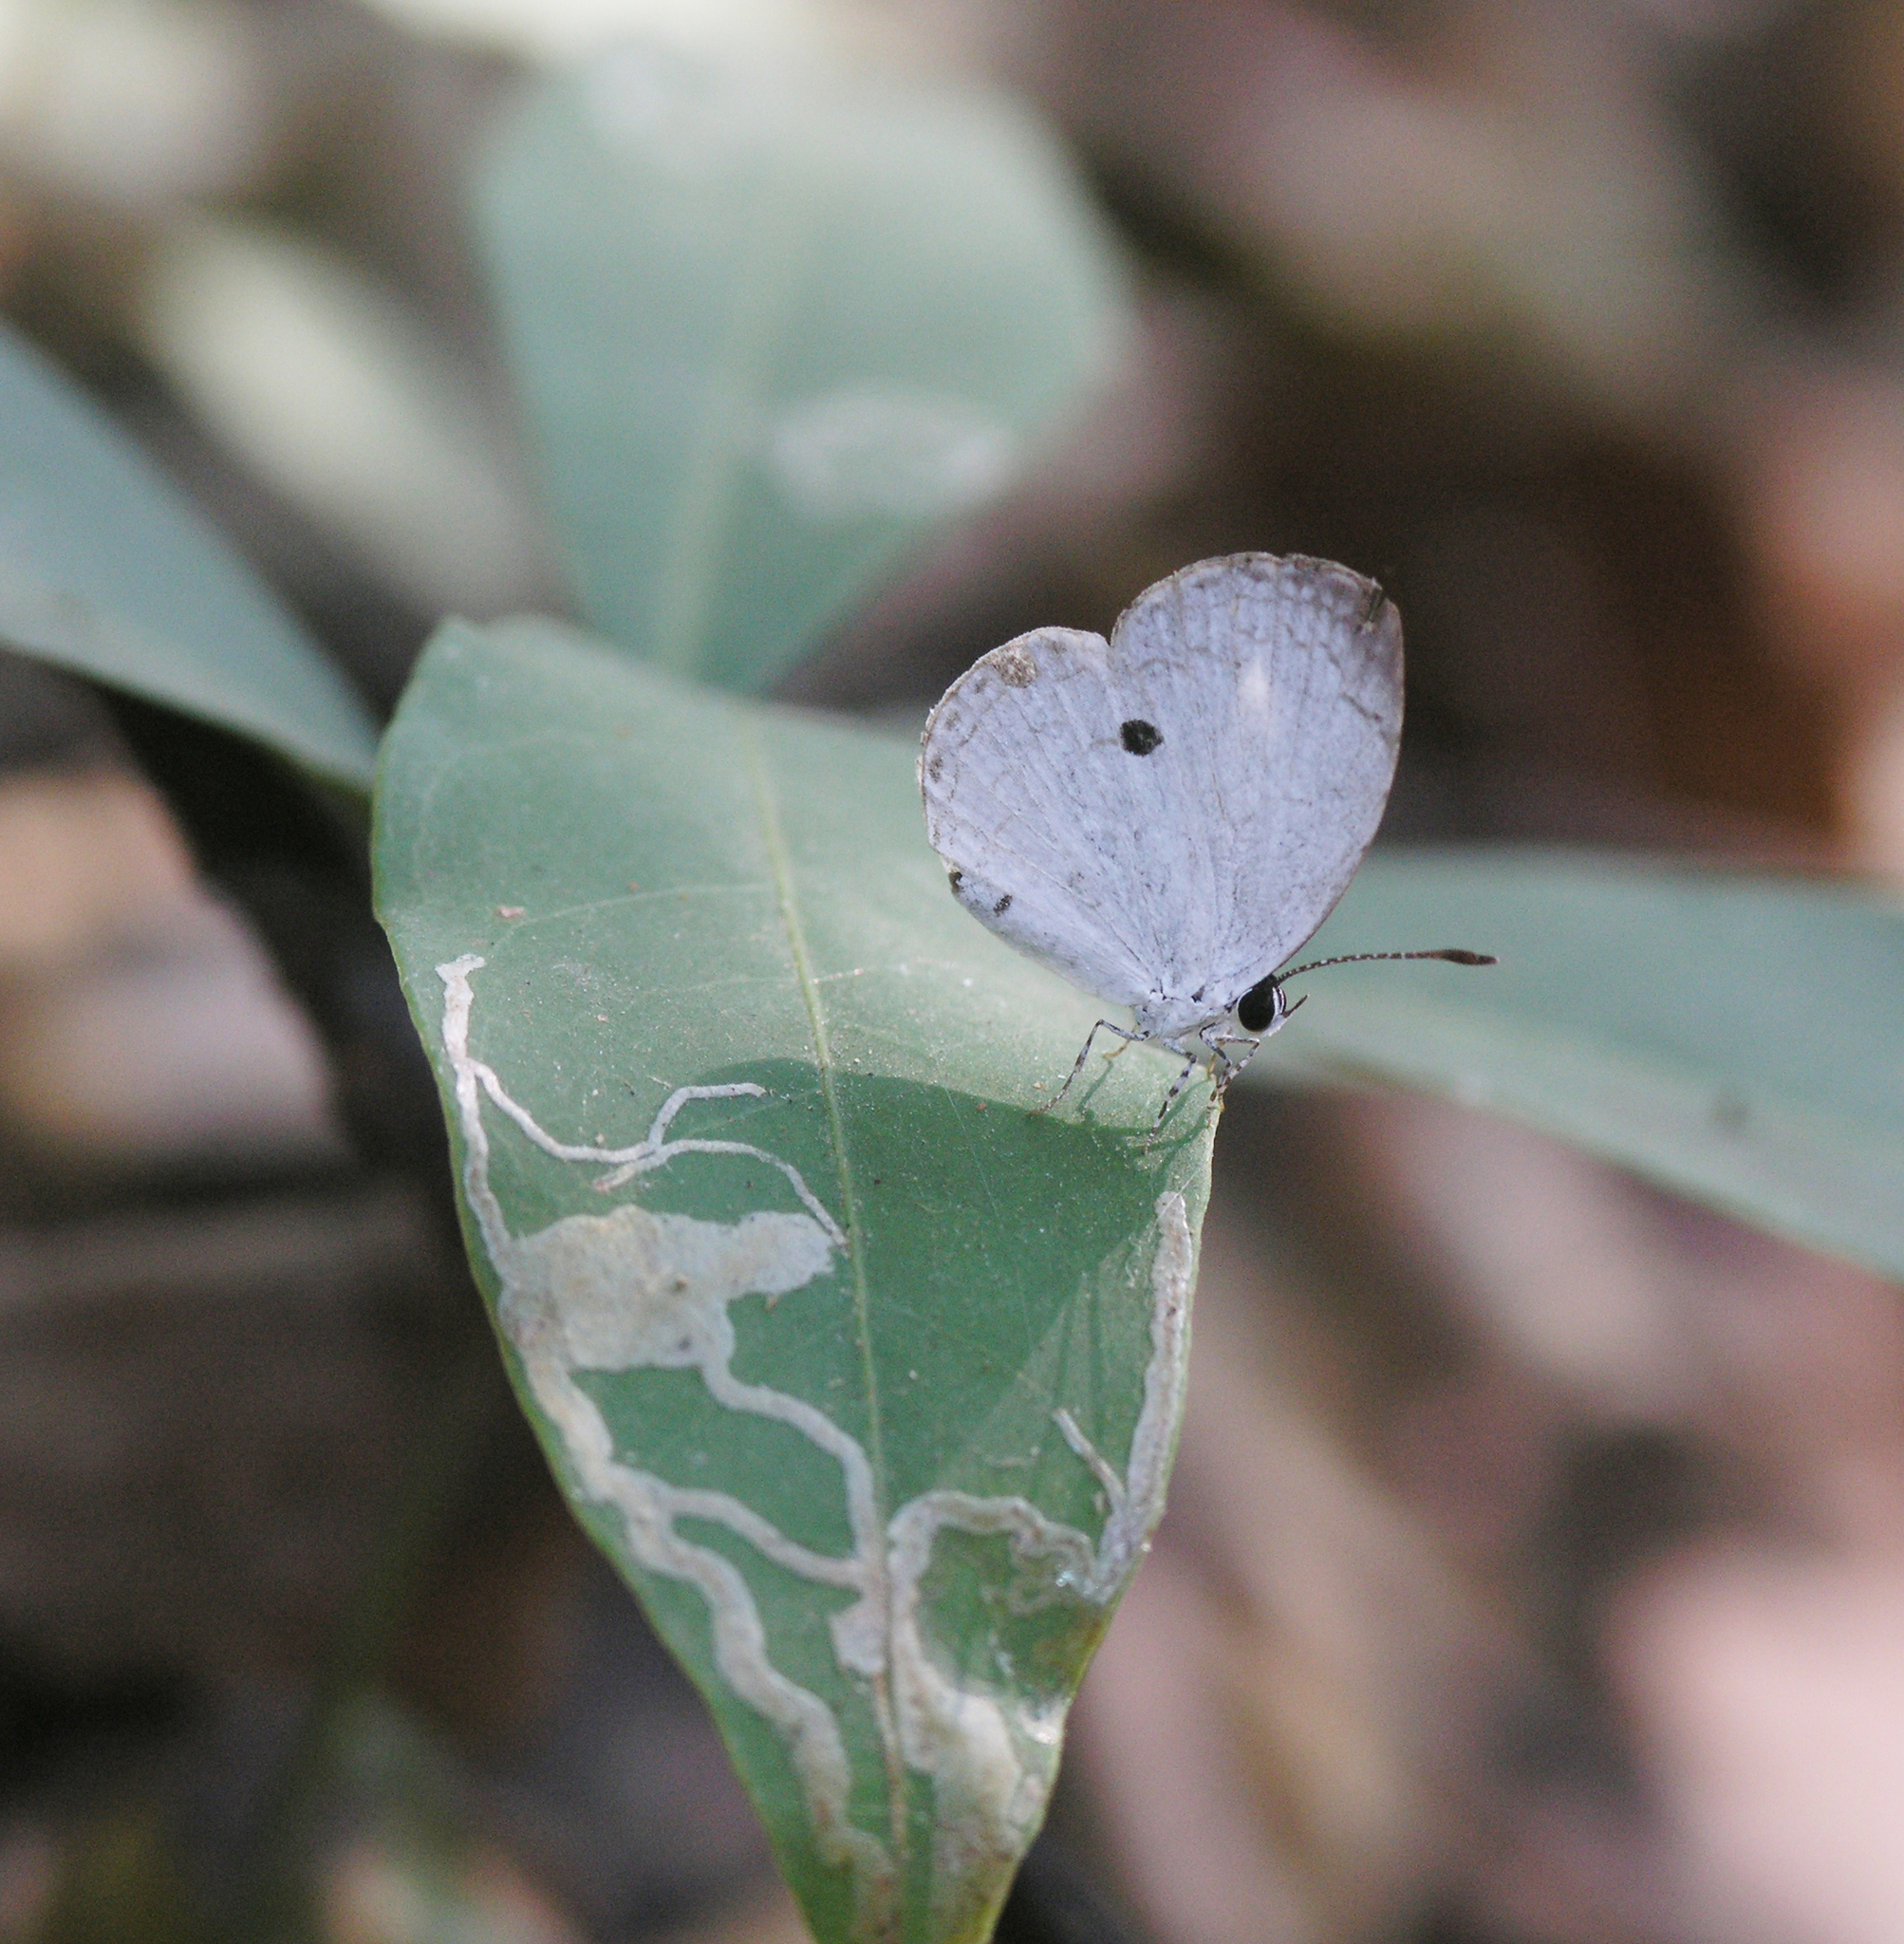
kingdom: Animalia
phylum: Arthropoda
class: Insecta
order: Lepidoptera
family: Lycaenidae
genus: Neopithecops
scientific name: Neopithecops zalmora
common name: Quaker
